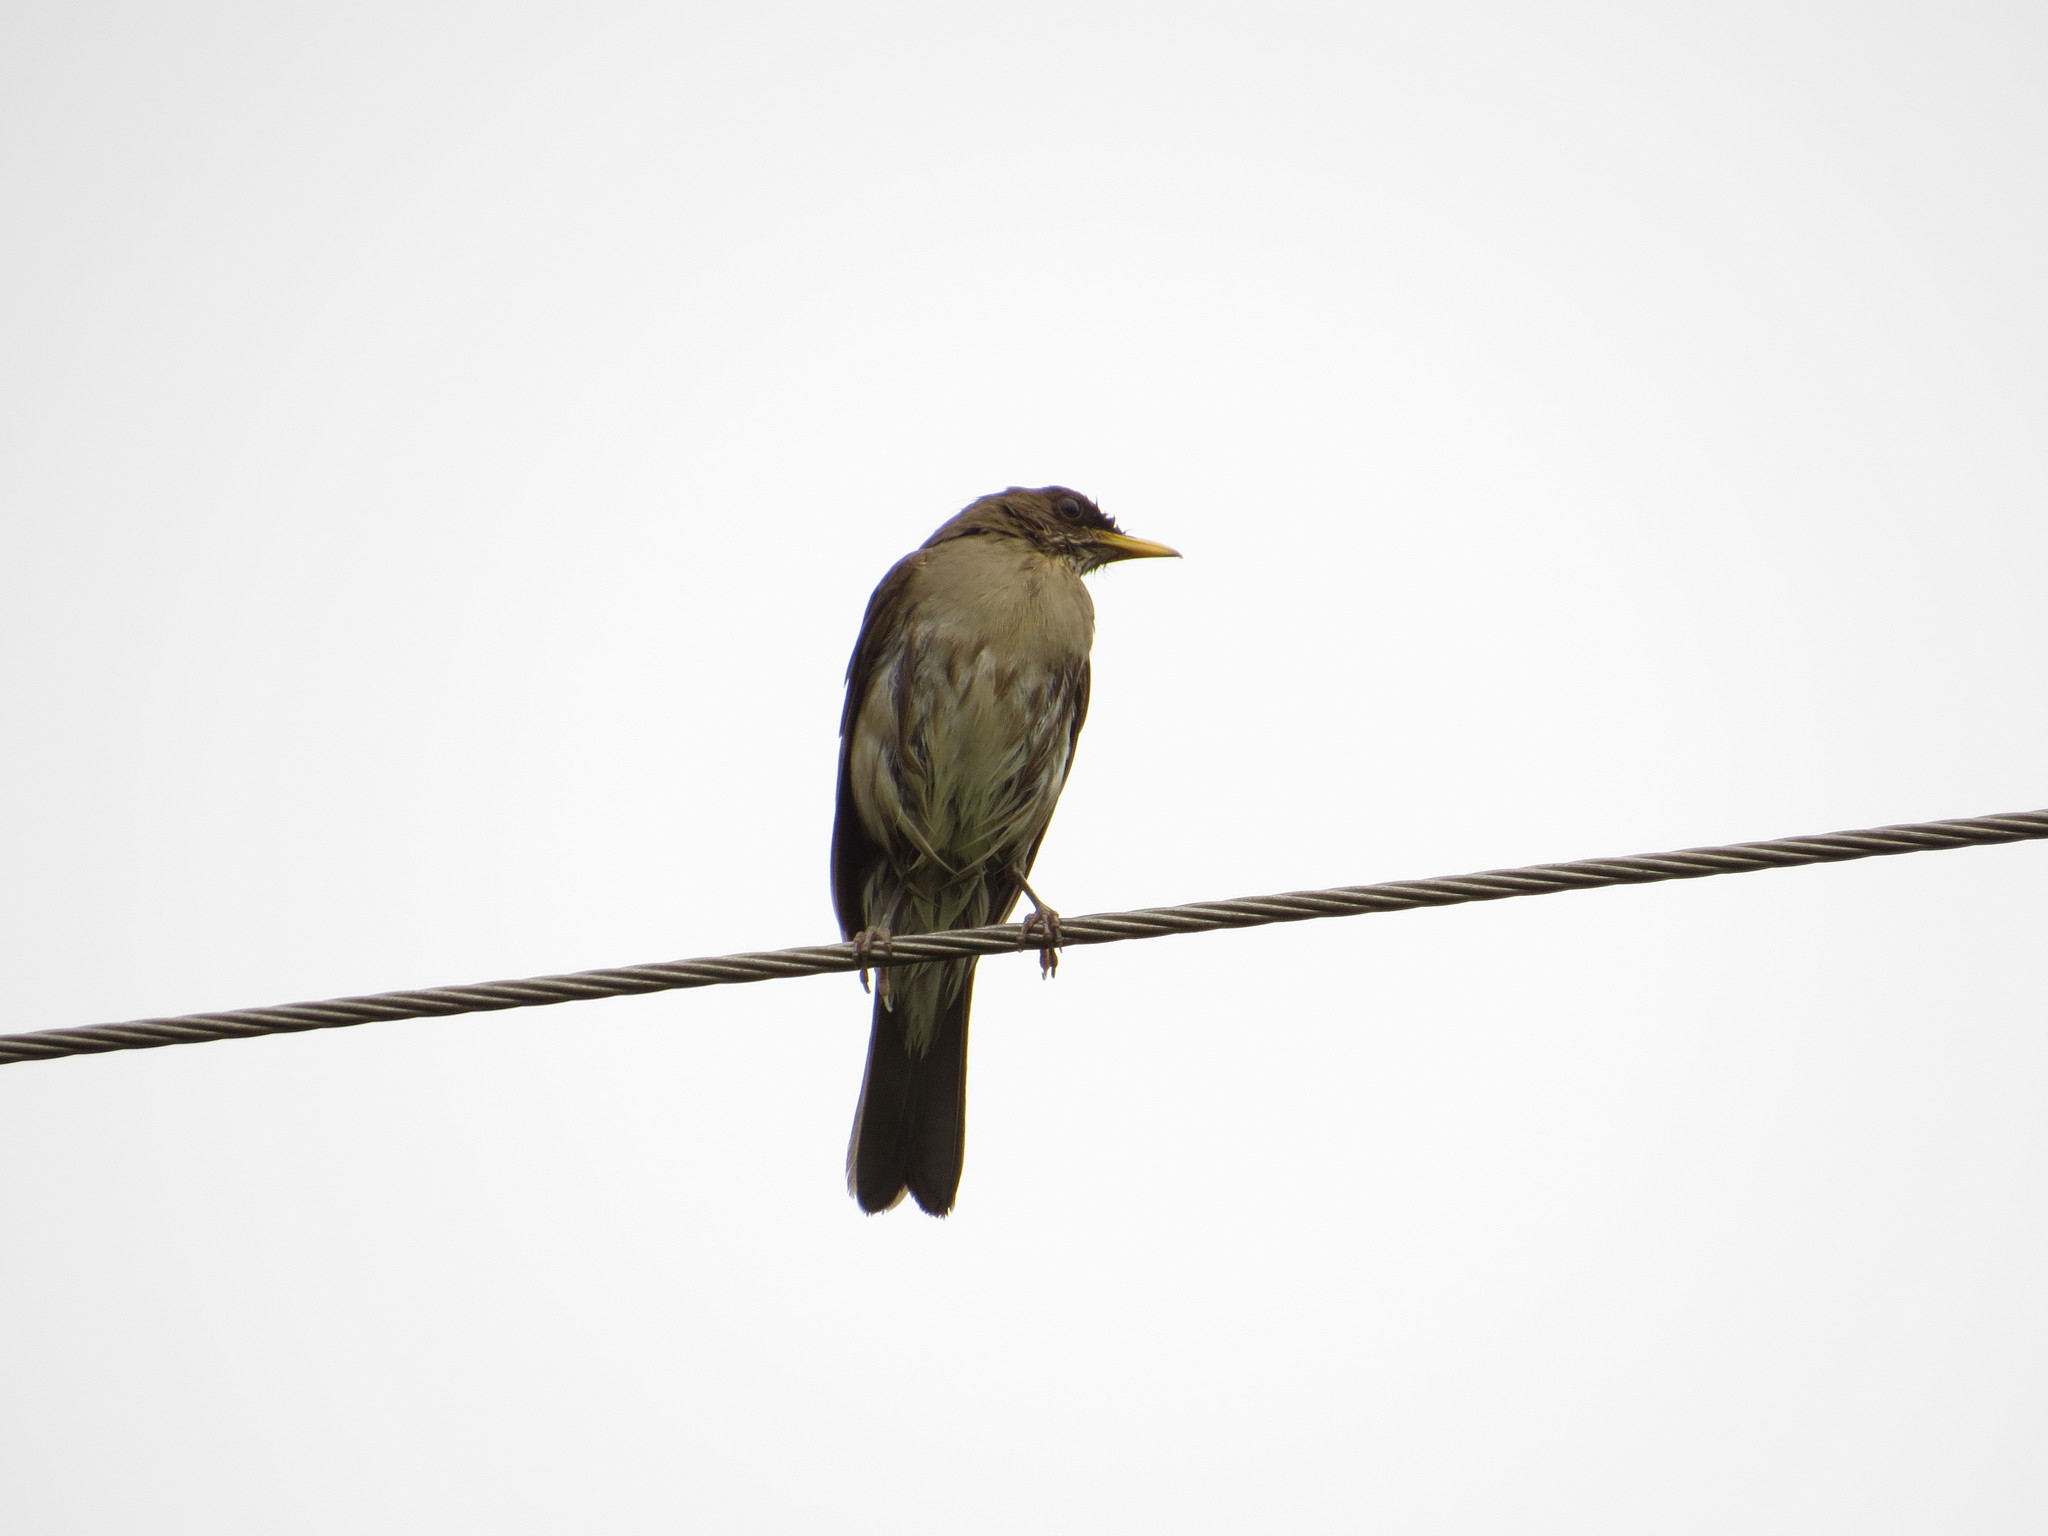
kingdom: Animalia
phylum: Chordata
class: Aves
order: Passeriformes
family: Turdidae
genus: Turdus
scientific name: Turdus amaurochalinus
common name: Creamy-bellied thrush
